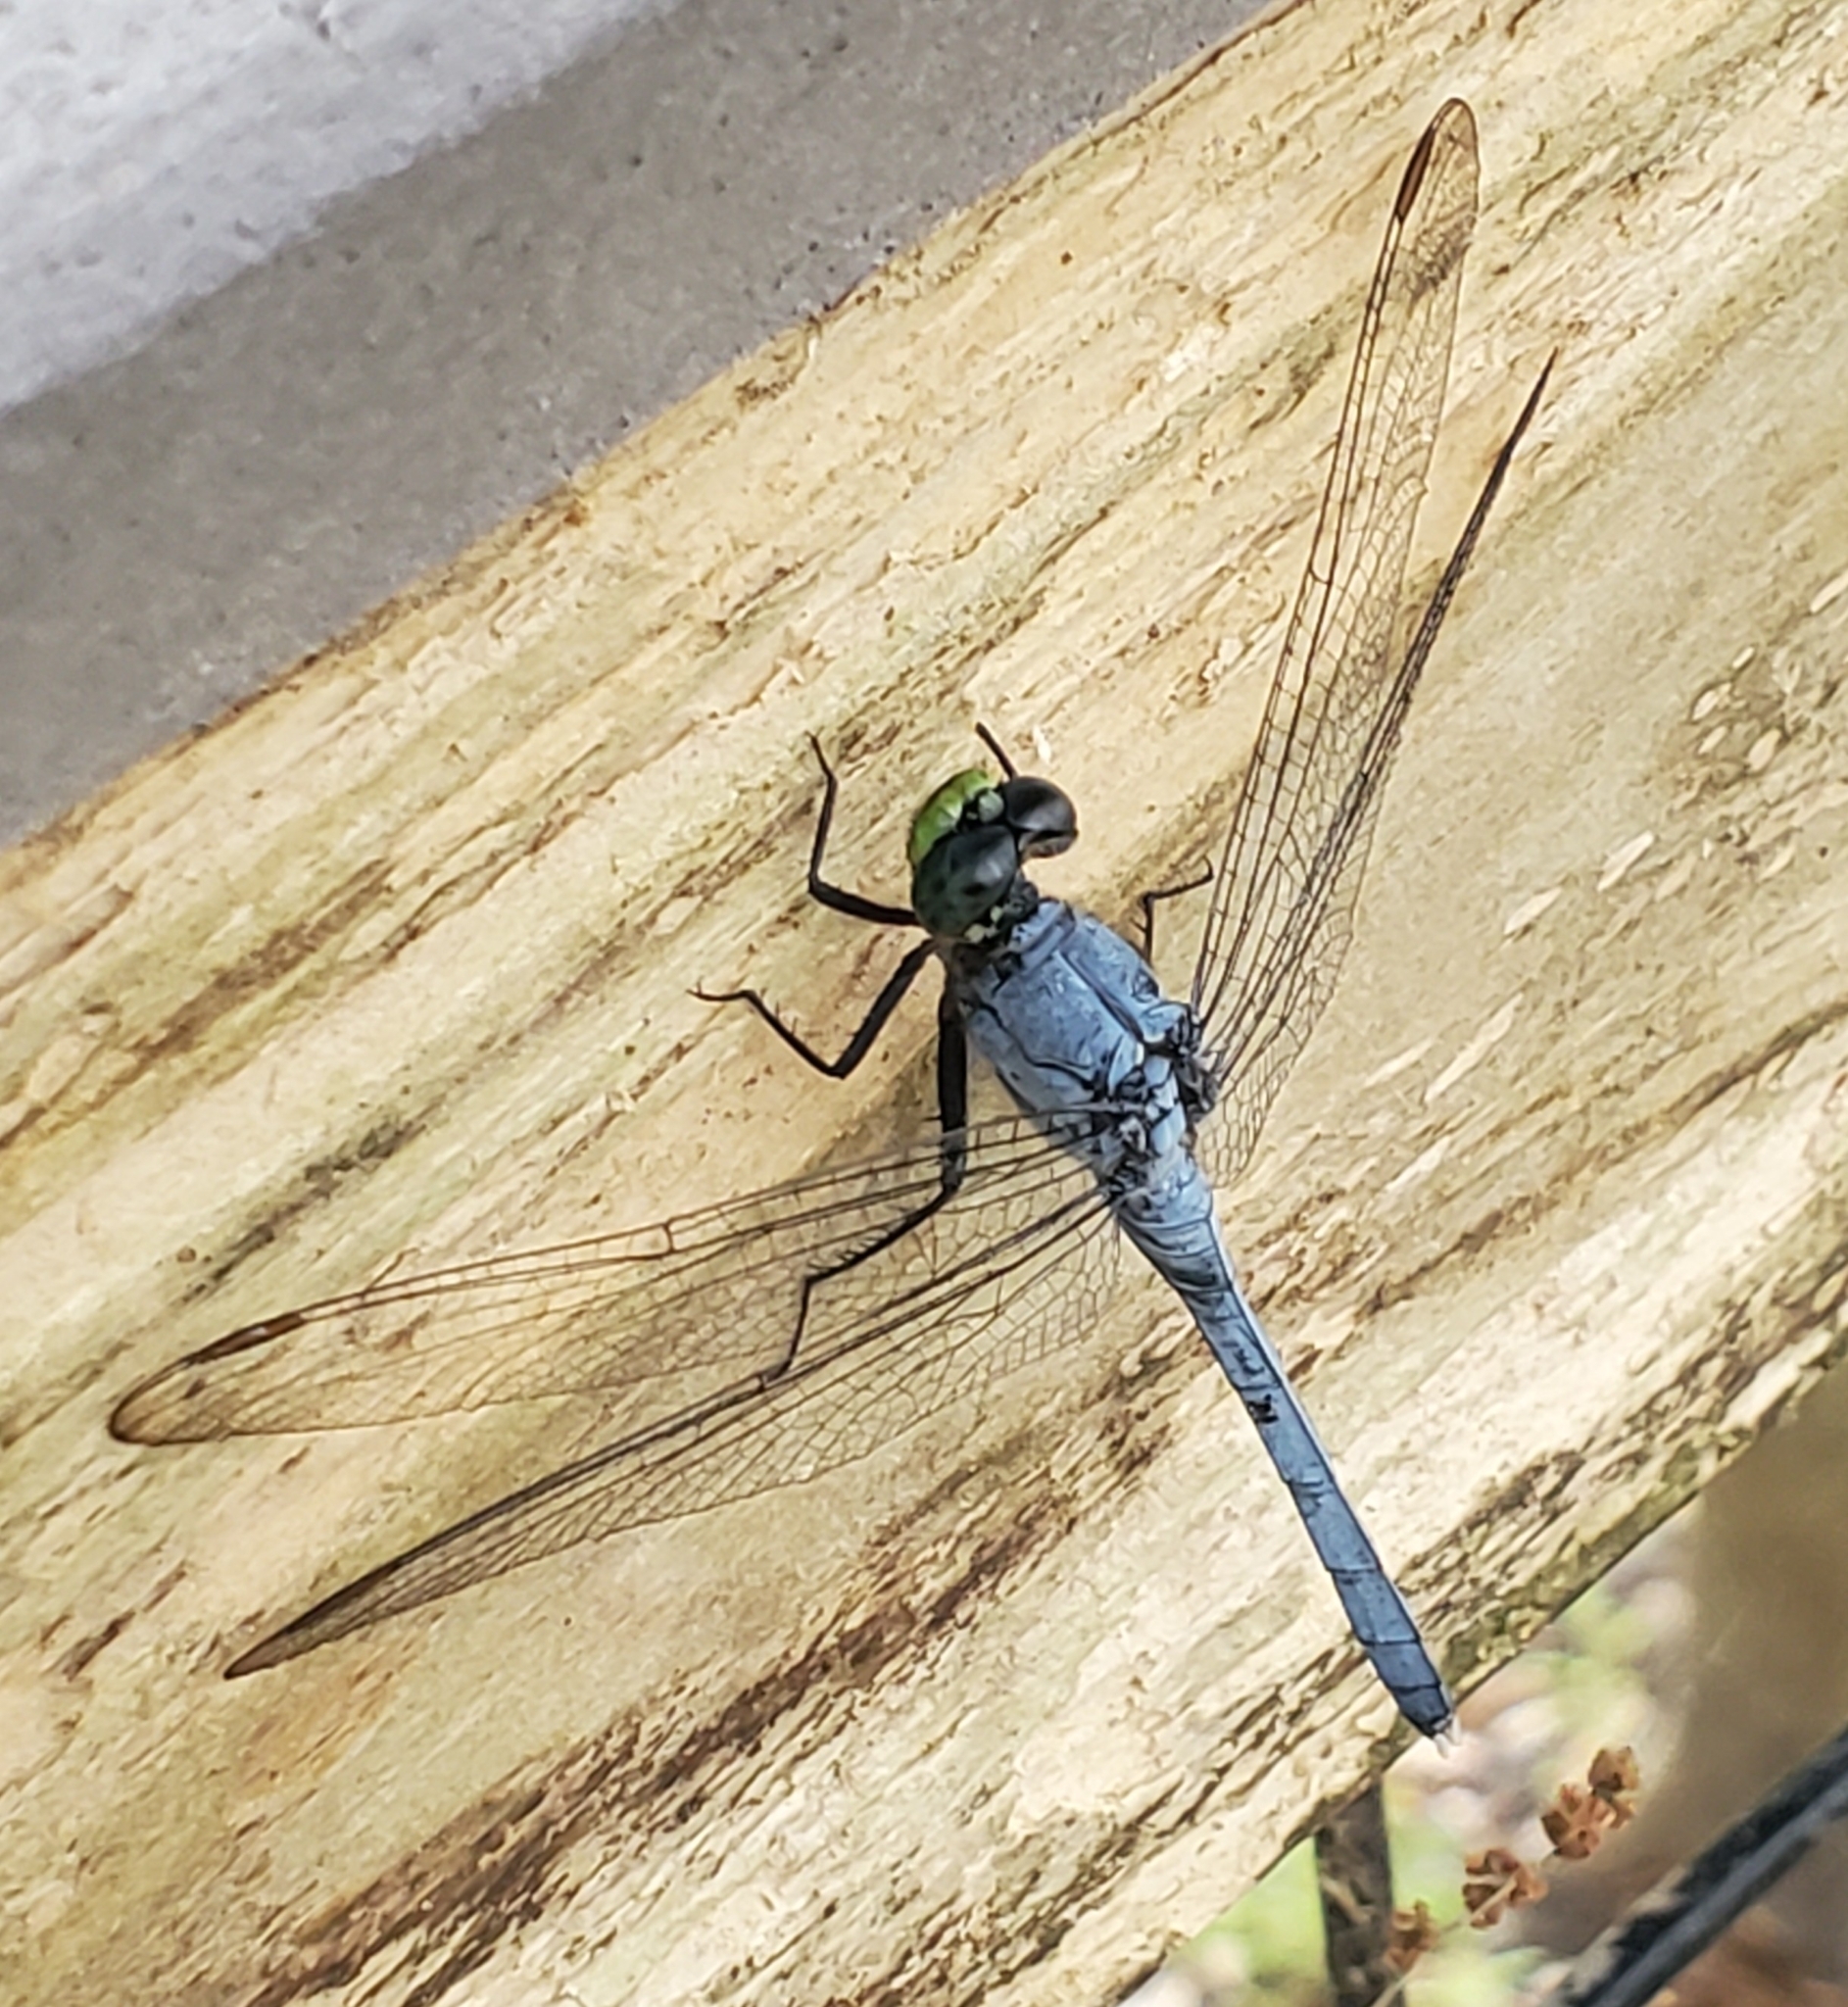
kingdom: Animalia
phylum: Arthropoda
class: Insecta
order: Odonata
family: Libellulidae
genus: Erythemis
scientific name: Erythemis simplicicollis
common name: Eastern pondhawk
